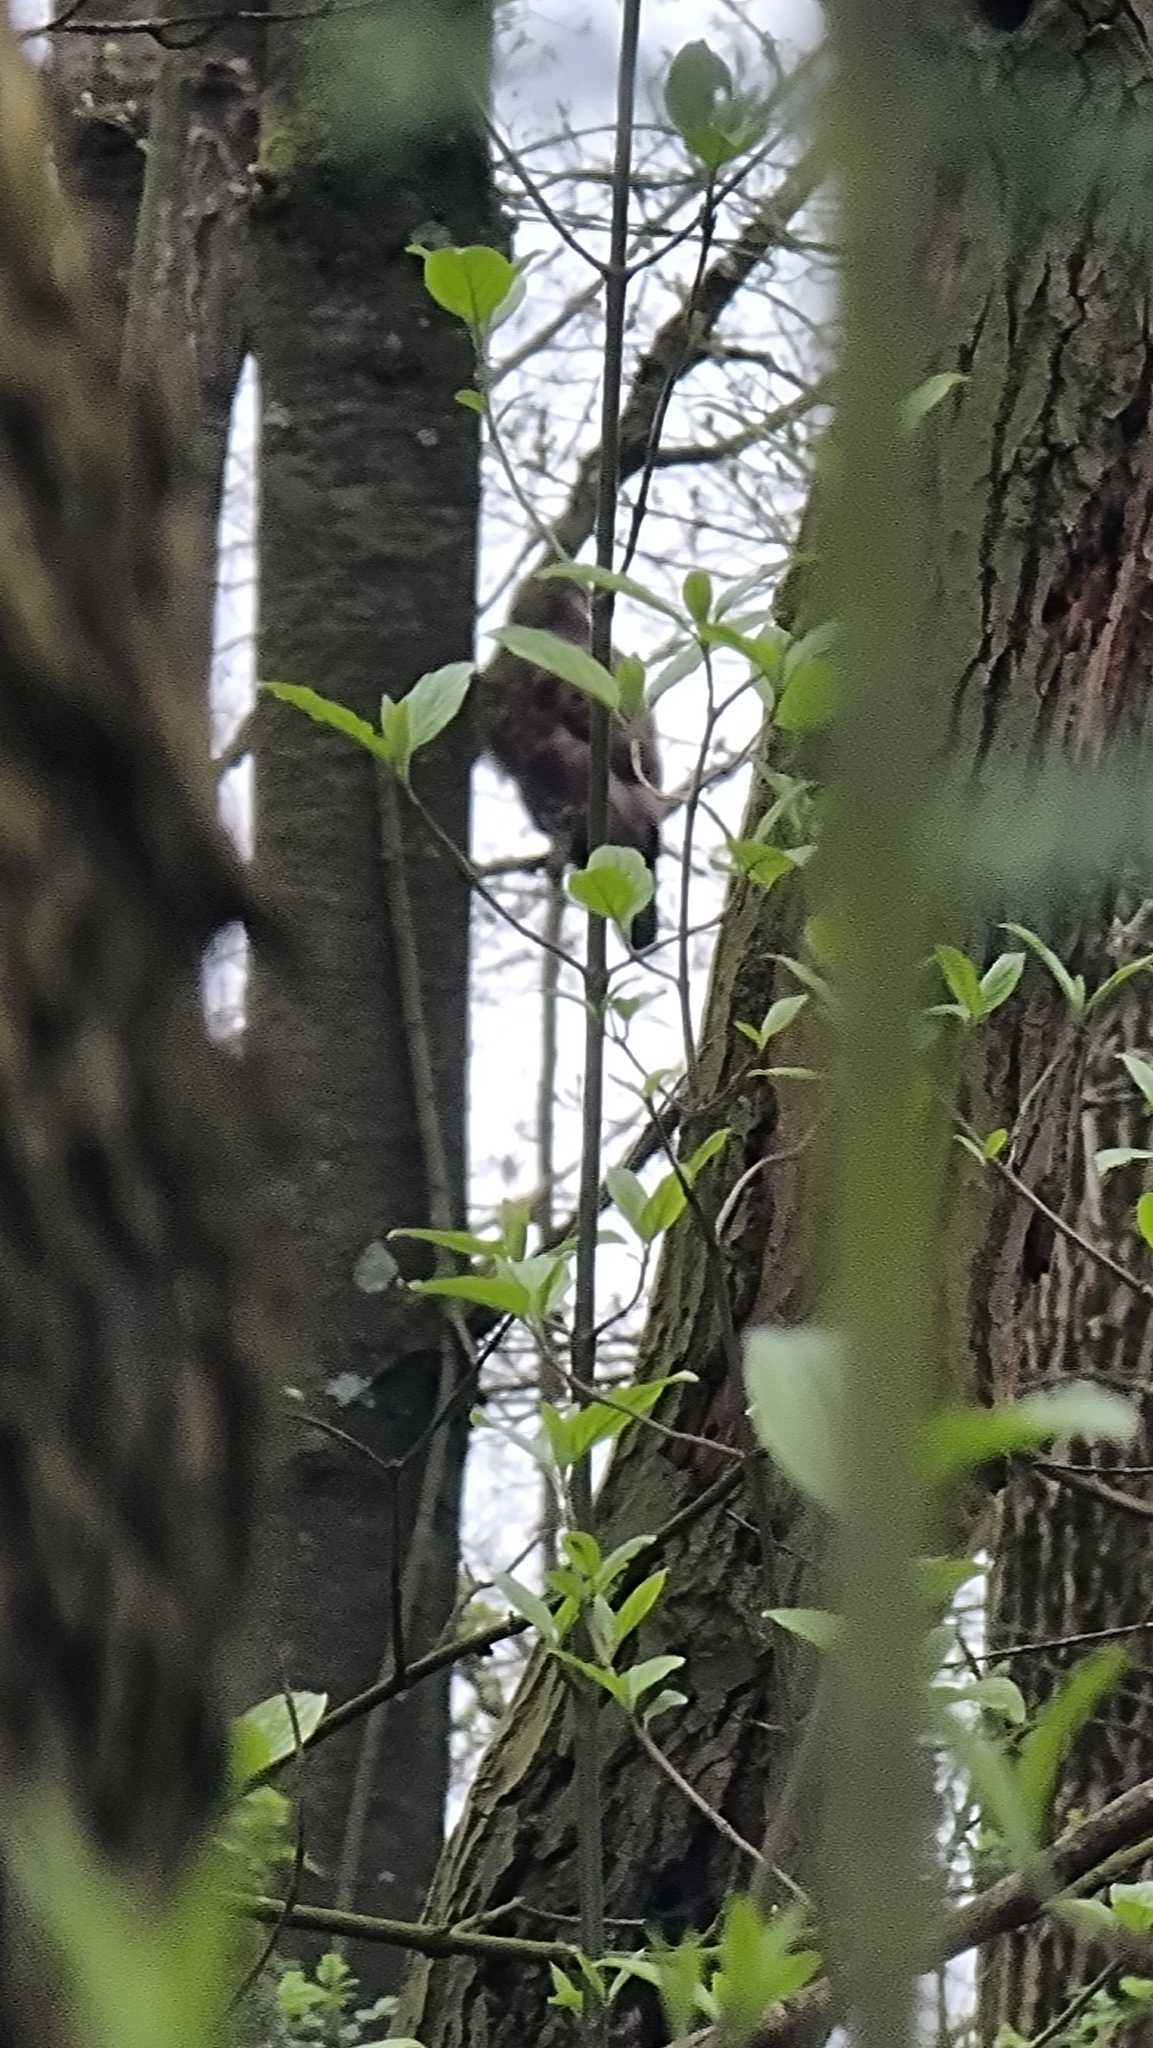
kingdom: Animalia
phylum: Chordata
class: Aves
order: Accipitriformes
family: Accipitridae
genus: Buteo
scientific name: Buteo buteo
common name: Common buzzard
